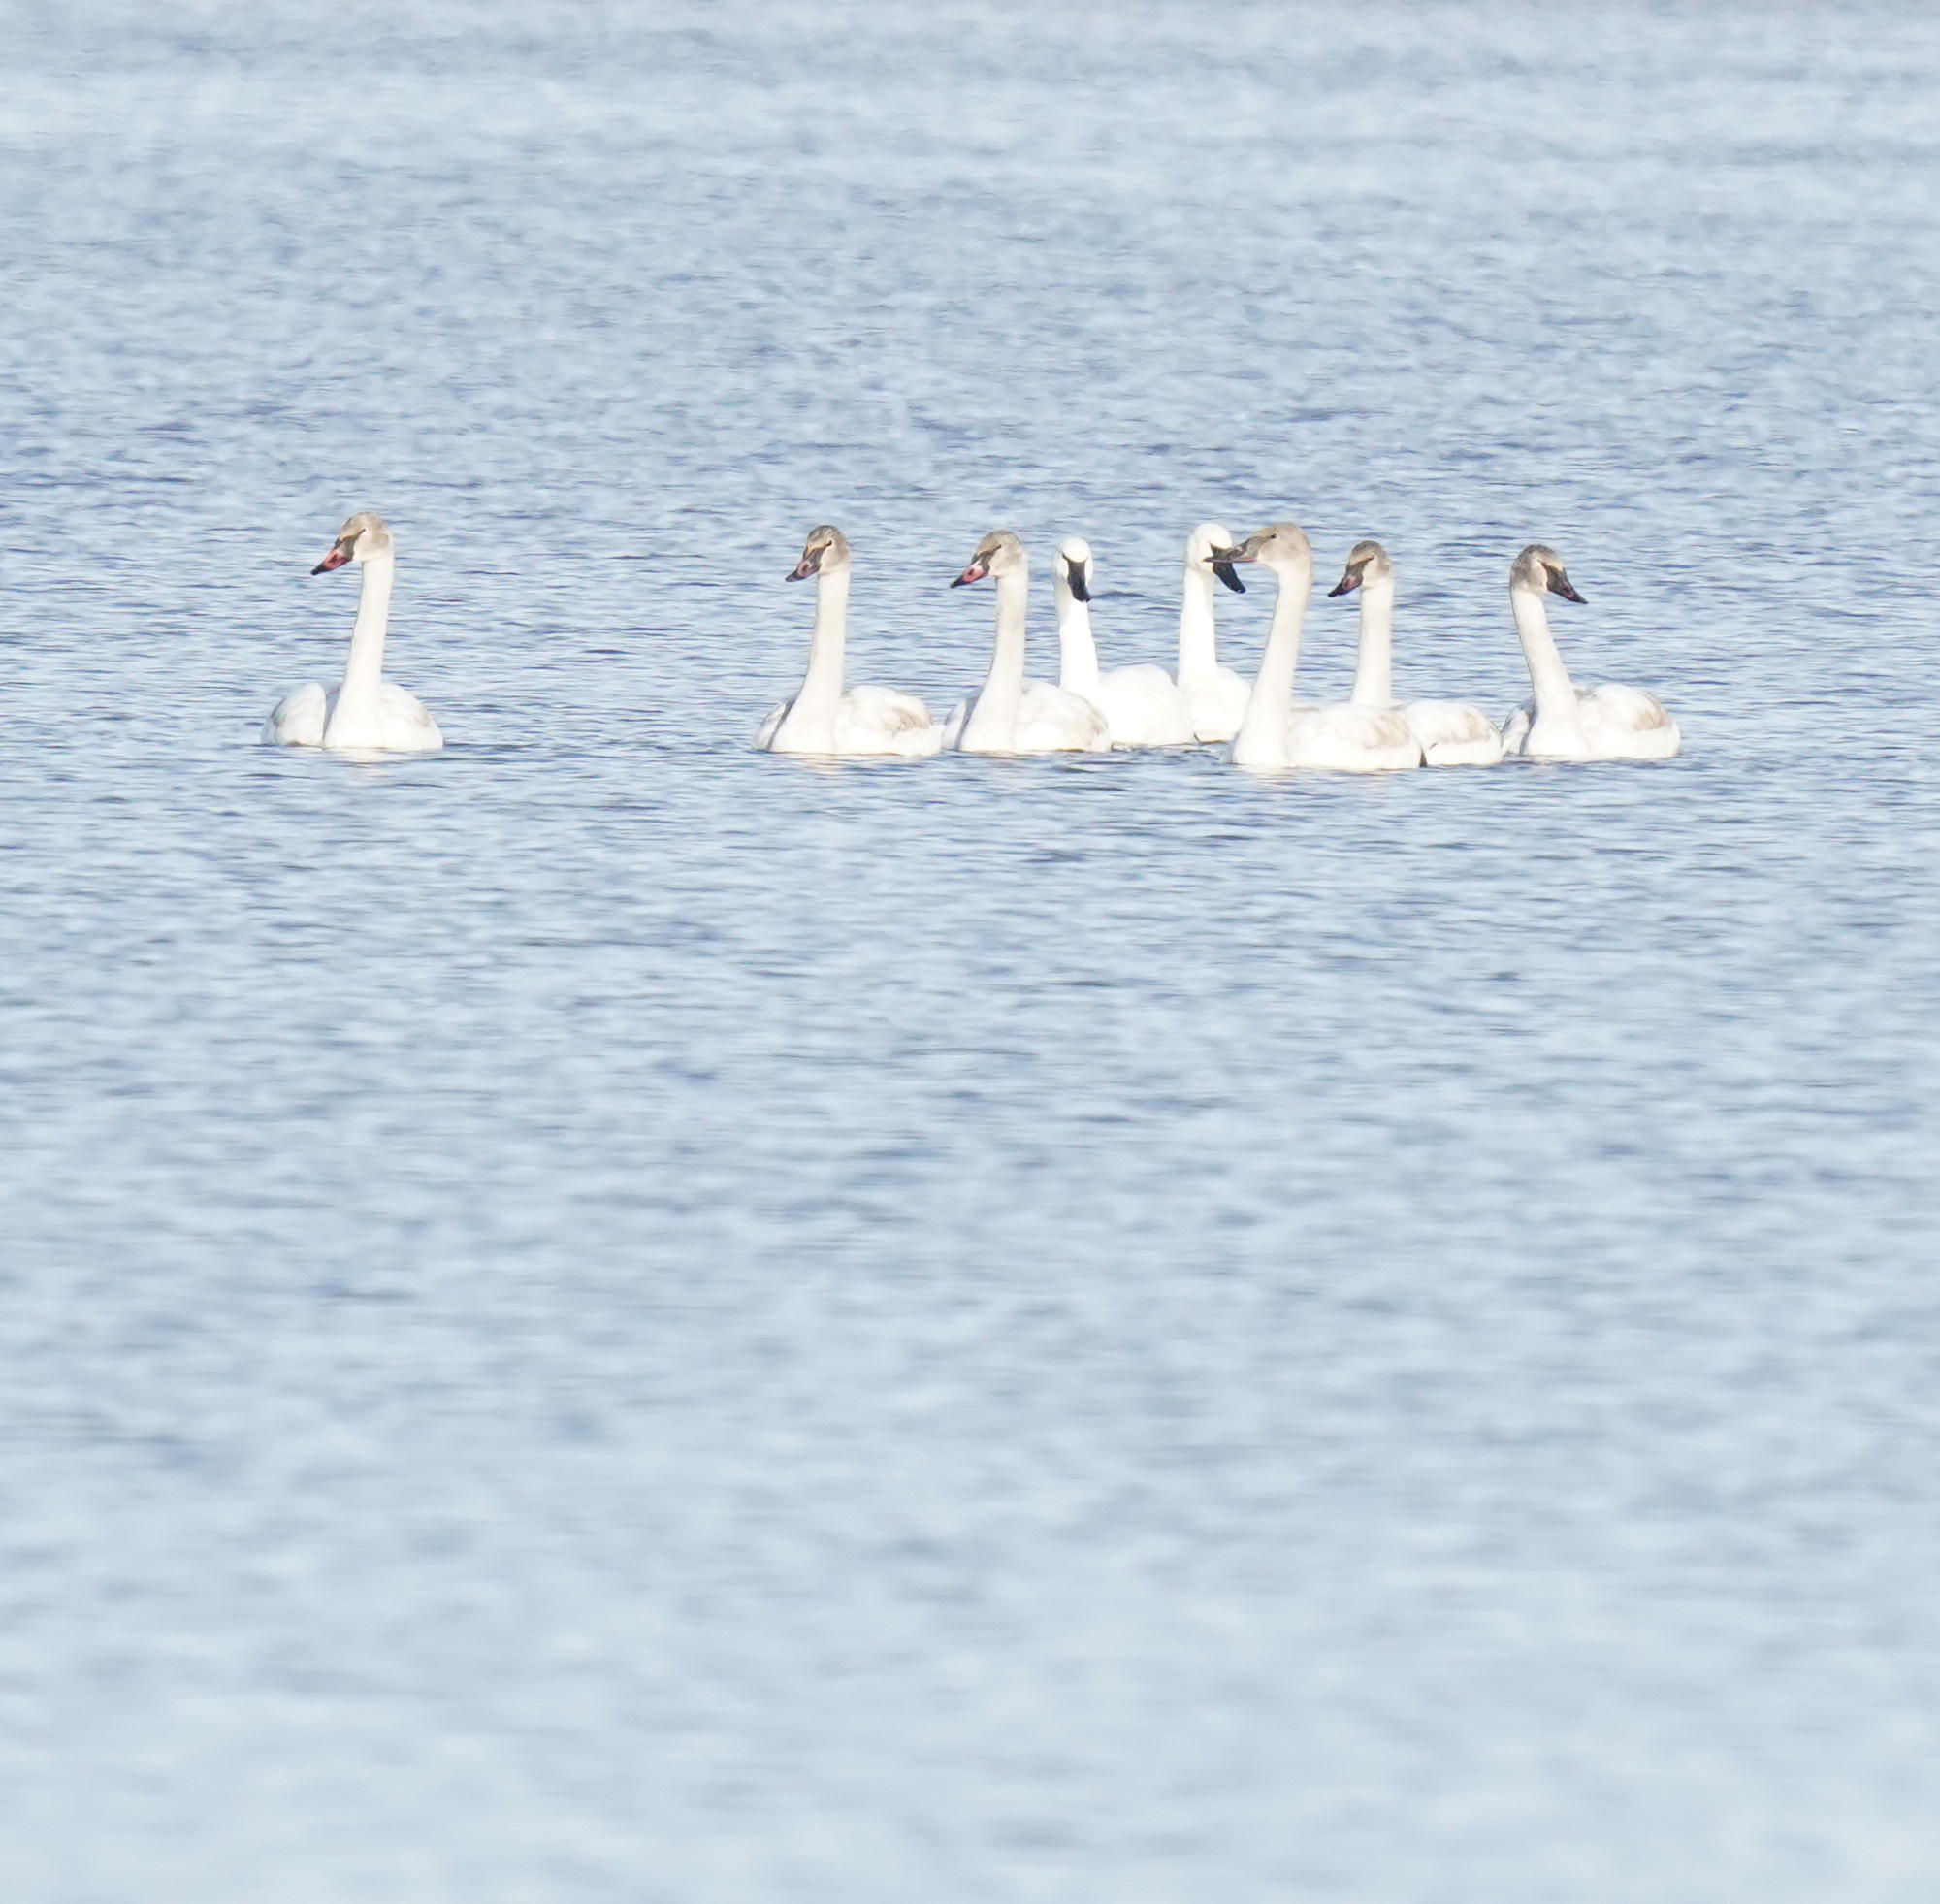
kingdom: Animalia
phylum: Chordata
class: Aves
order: Anseriformes
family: Anatidae
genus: Cygnus
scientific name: Cygnus buccinator
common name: Trumpeter swan
